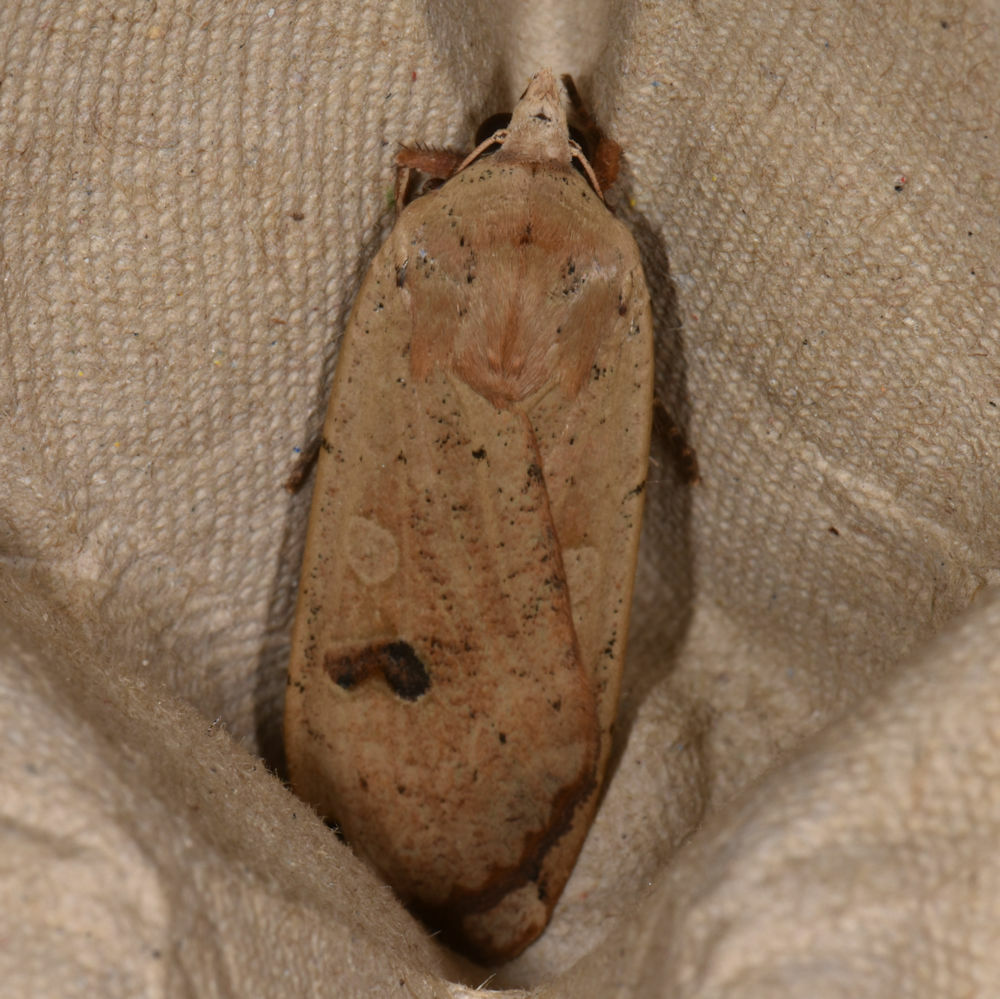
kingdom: Animalia
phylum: Arthropoda
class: Insecta
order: Lepidoptera
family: Noctuidae
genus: Noctua
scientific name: Noctua pronuba
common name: Large yellow underwing
